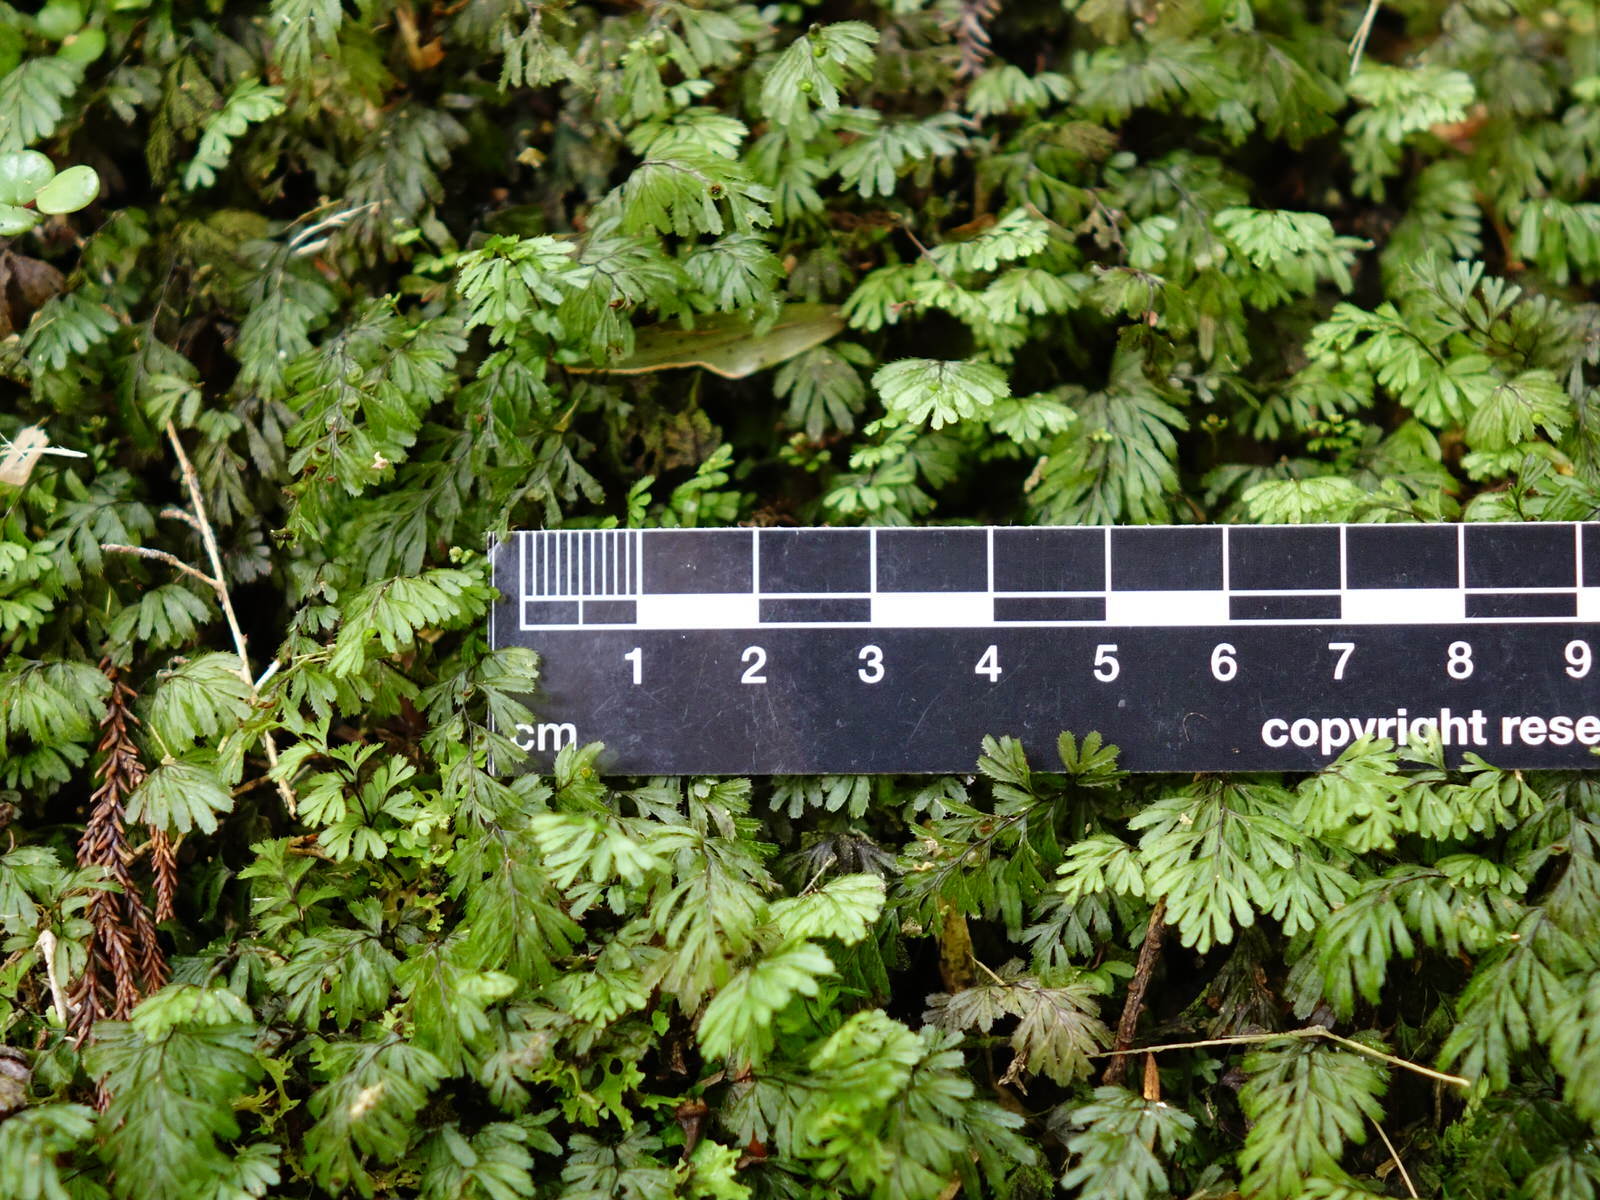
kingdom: Plantae
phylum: Tracheophyta
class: Polypodiopsida
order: Hymenophyllales
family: Hymenophyllaceae
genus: Hymenophyllum
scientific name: Hymenophyllum revolutum
